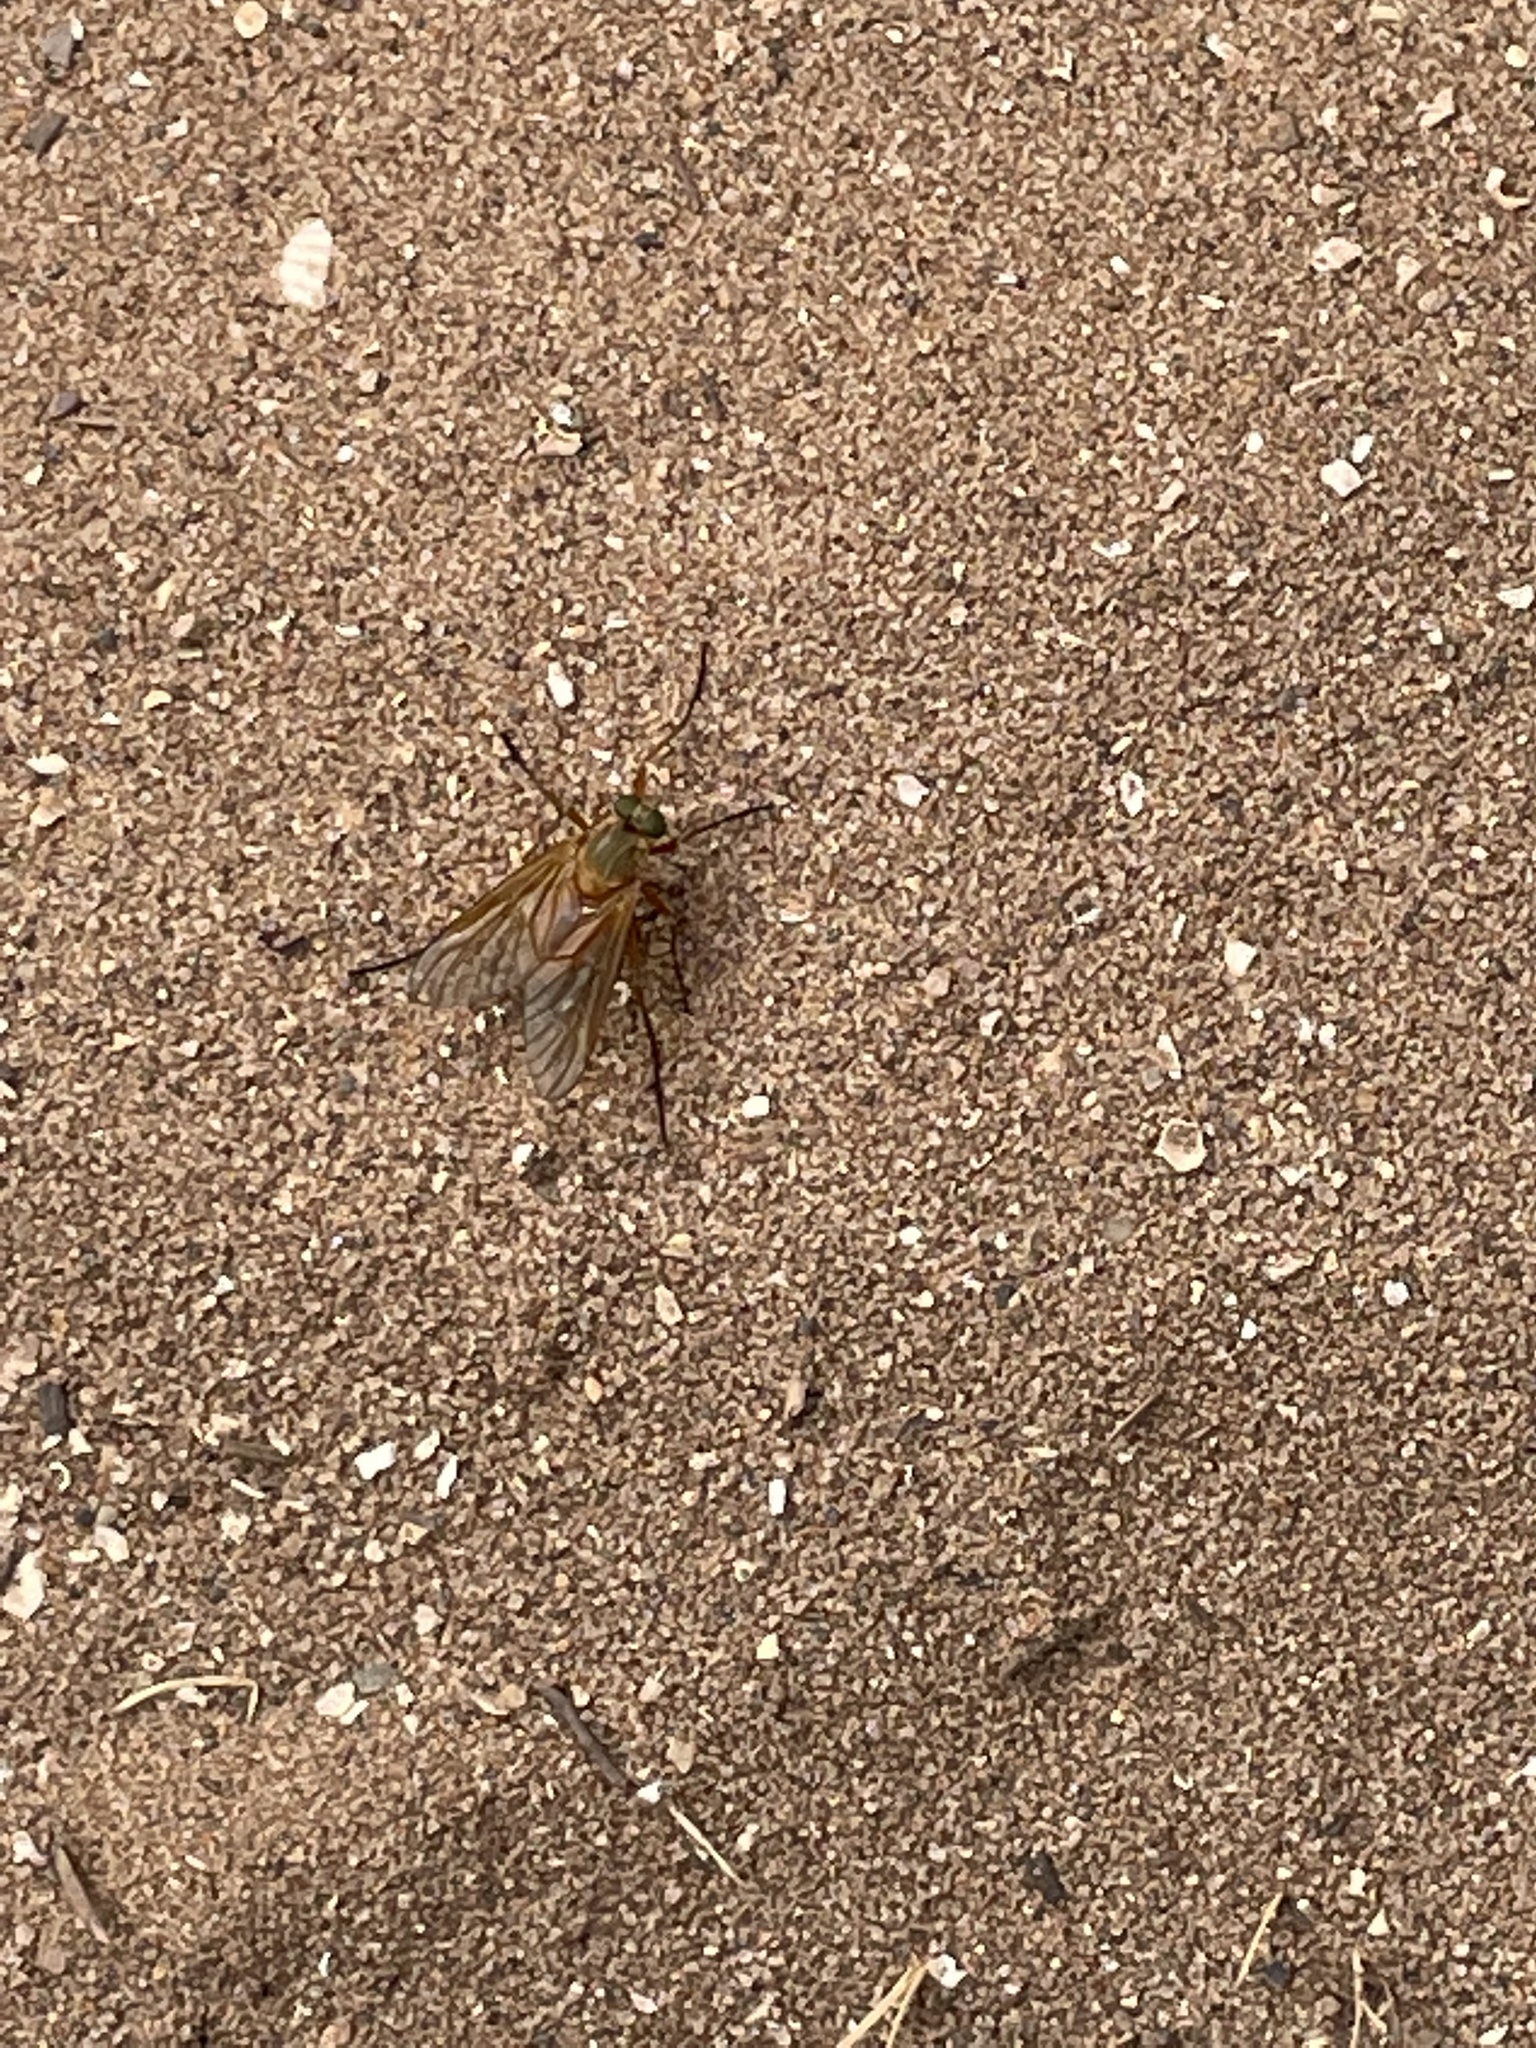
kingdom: Animalia
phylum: Arthropoda
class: Insecta
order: Diptera
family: Rhagionidae
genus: Rhagio
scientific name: Rhagio tringaria
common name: Marsh snipefly
